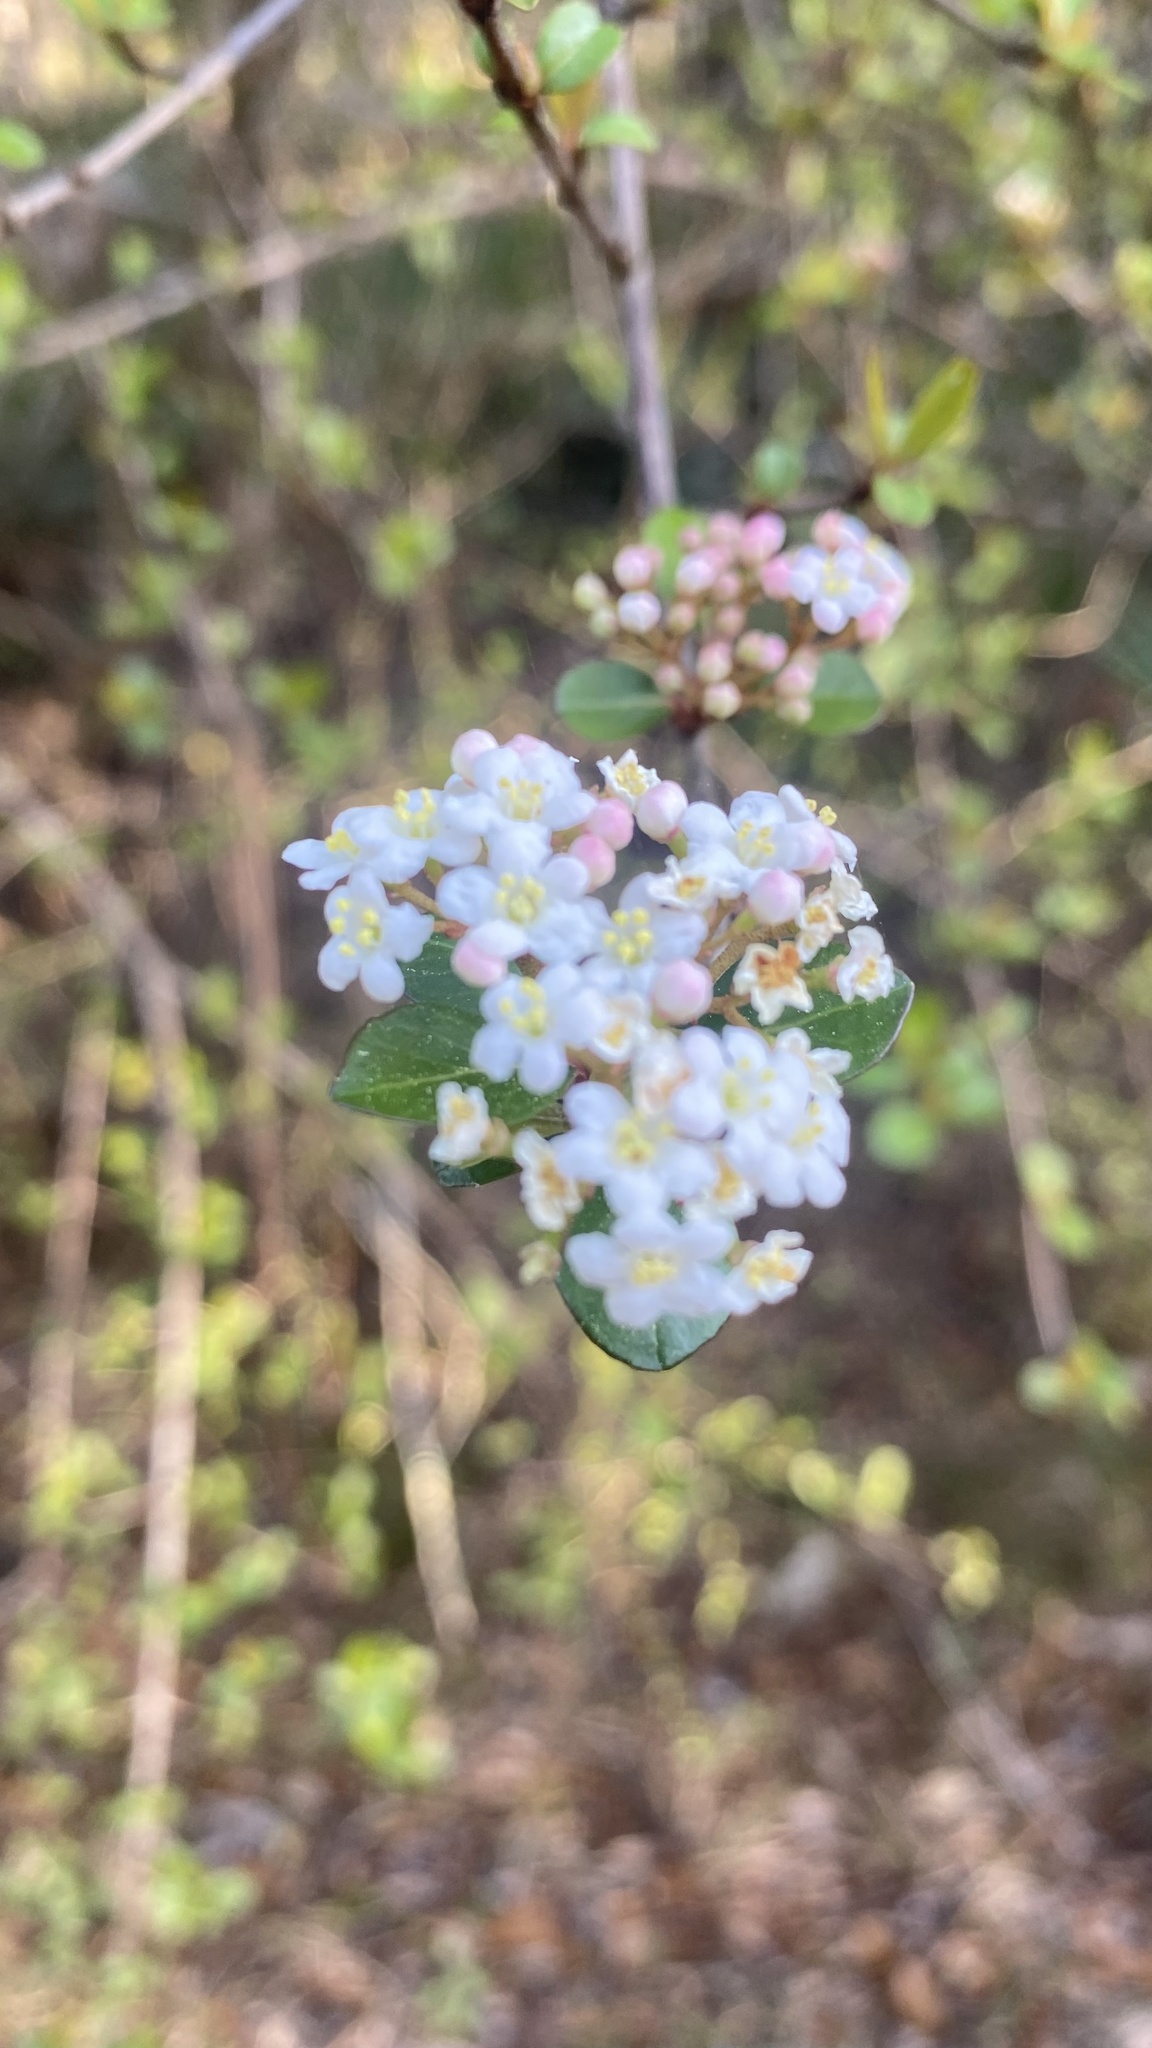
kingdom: Plantae
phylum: Tracheophyta
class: Magnoliopsida
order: Dipsacales
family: Viburnaceae
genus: Viburnum
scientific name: Viburnum obovatum
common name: Walter's viburnum
